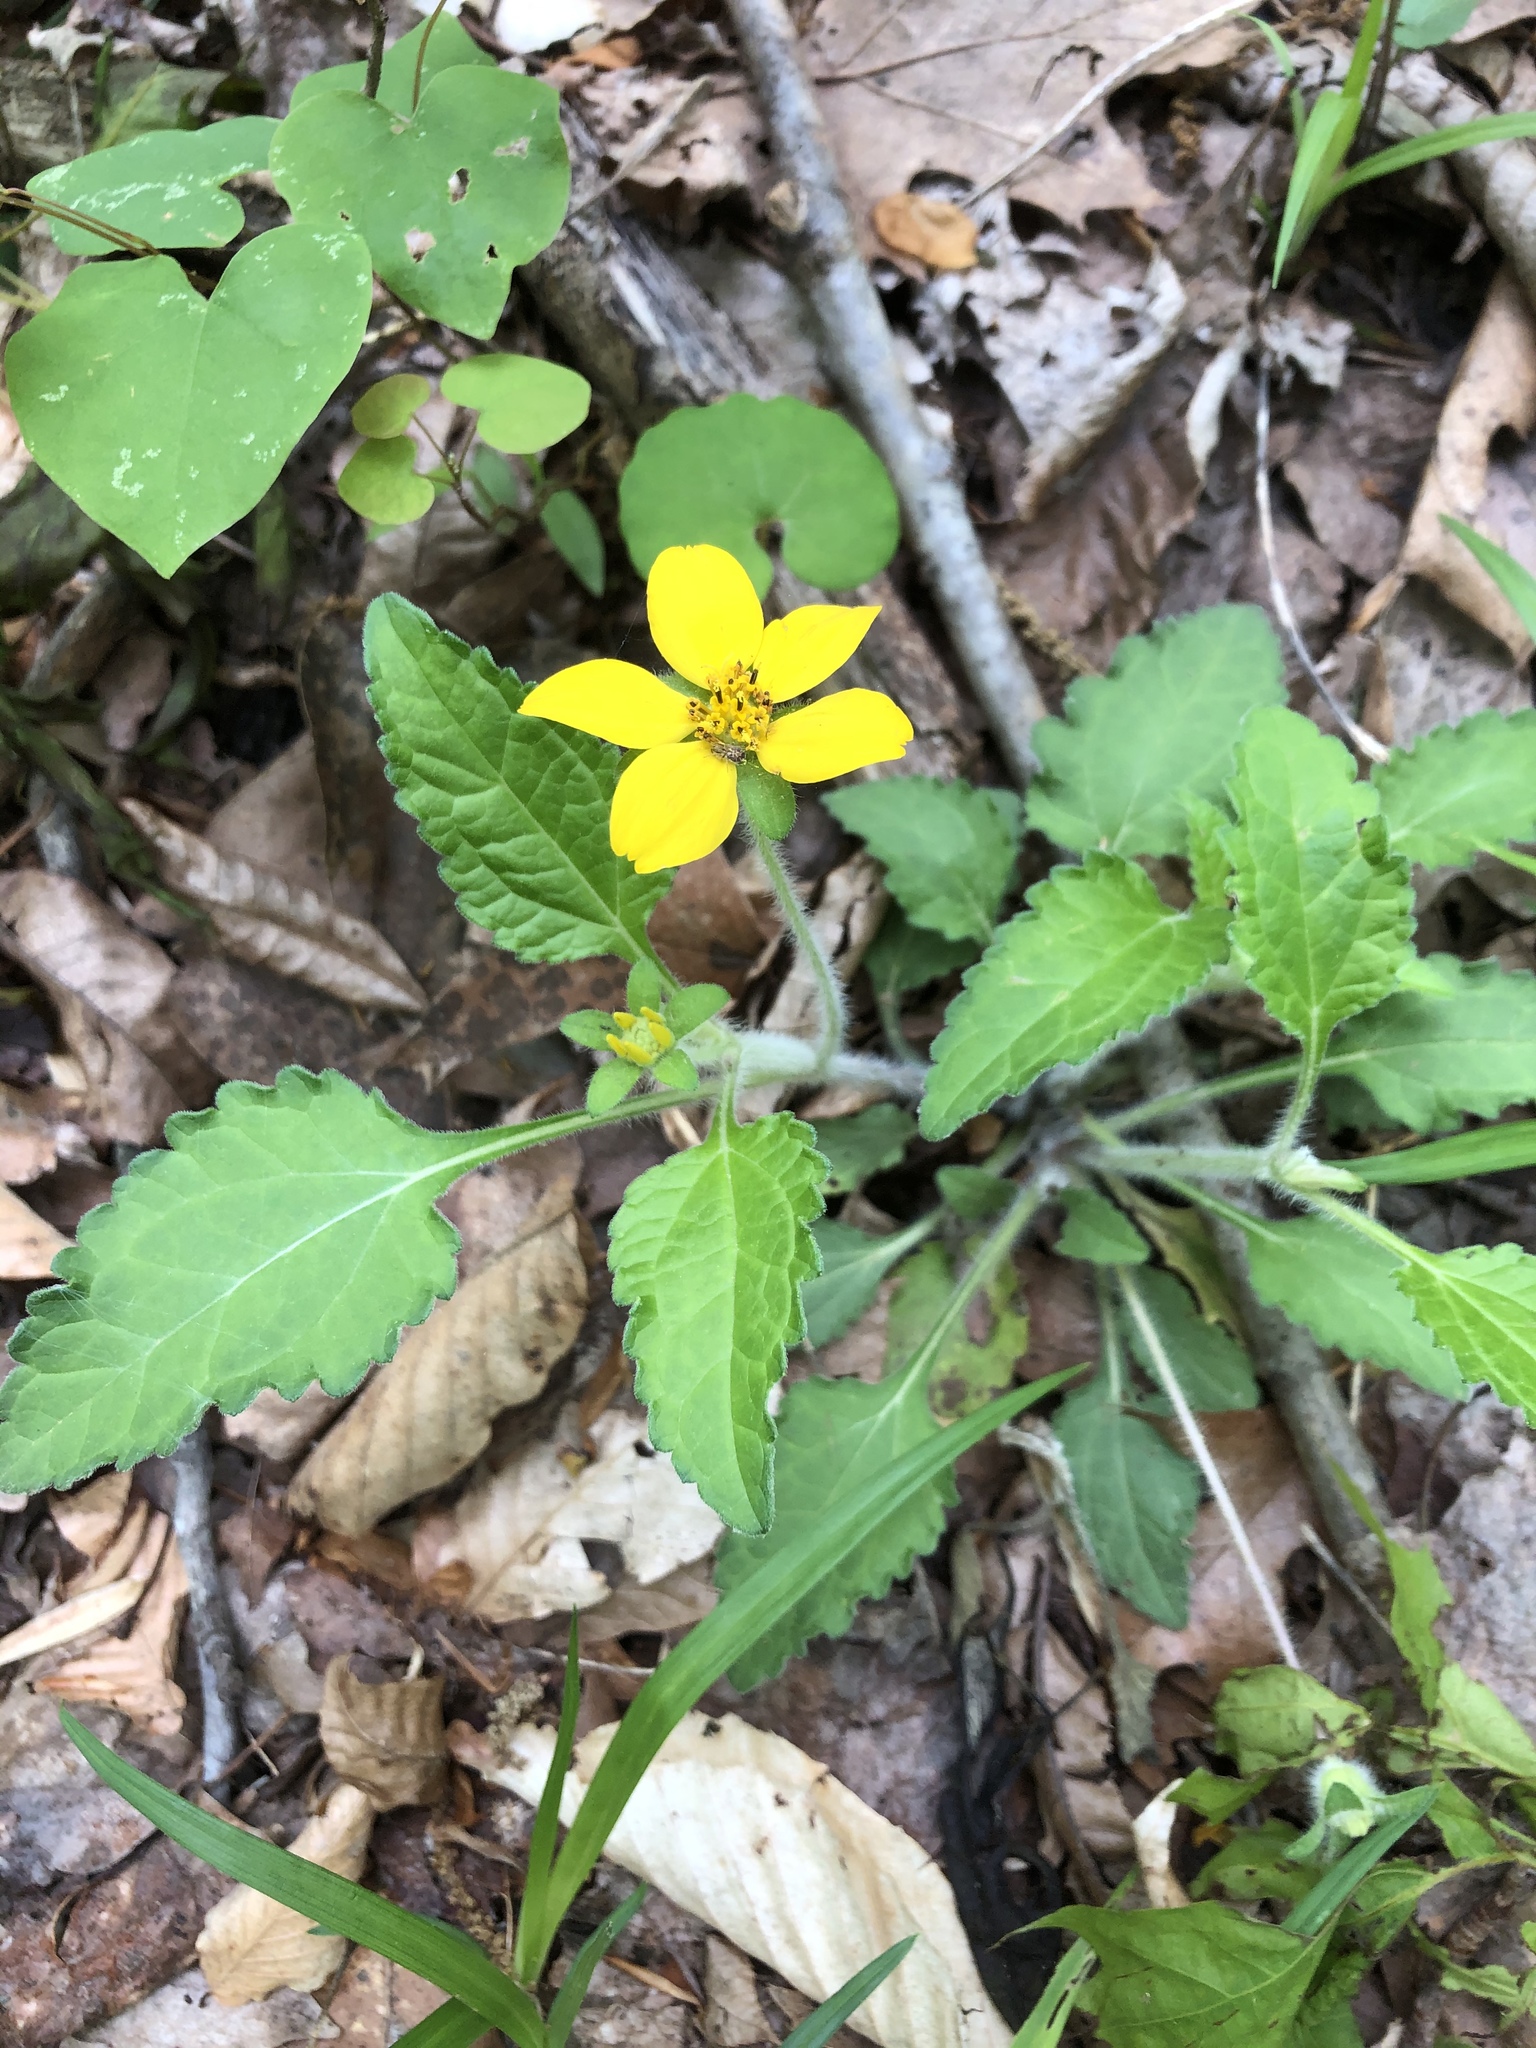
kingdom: Plantae
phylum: Tracheophyta
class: Magnoliopsida
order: Asterales
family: Asteraceae
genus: Chrysogonum
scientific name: Chrysogonum virginianum
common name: Golden-knee
